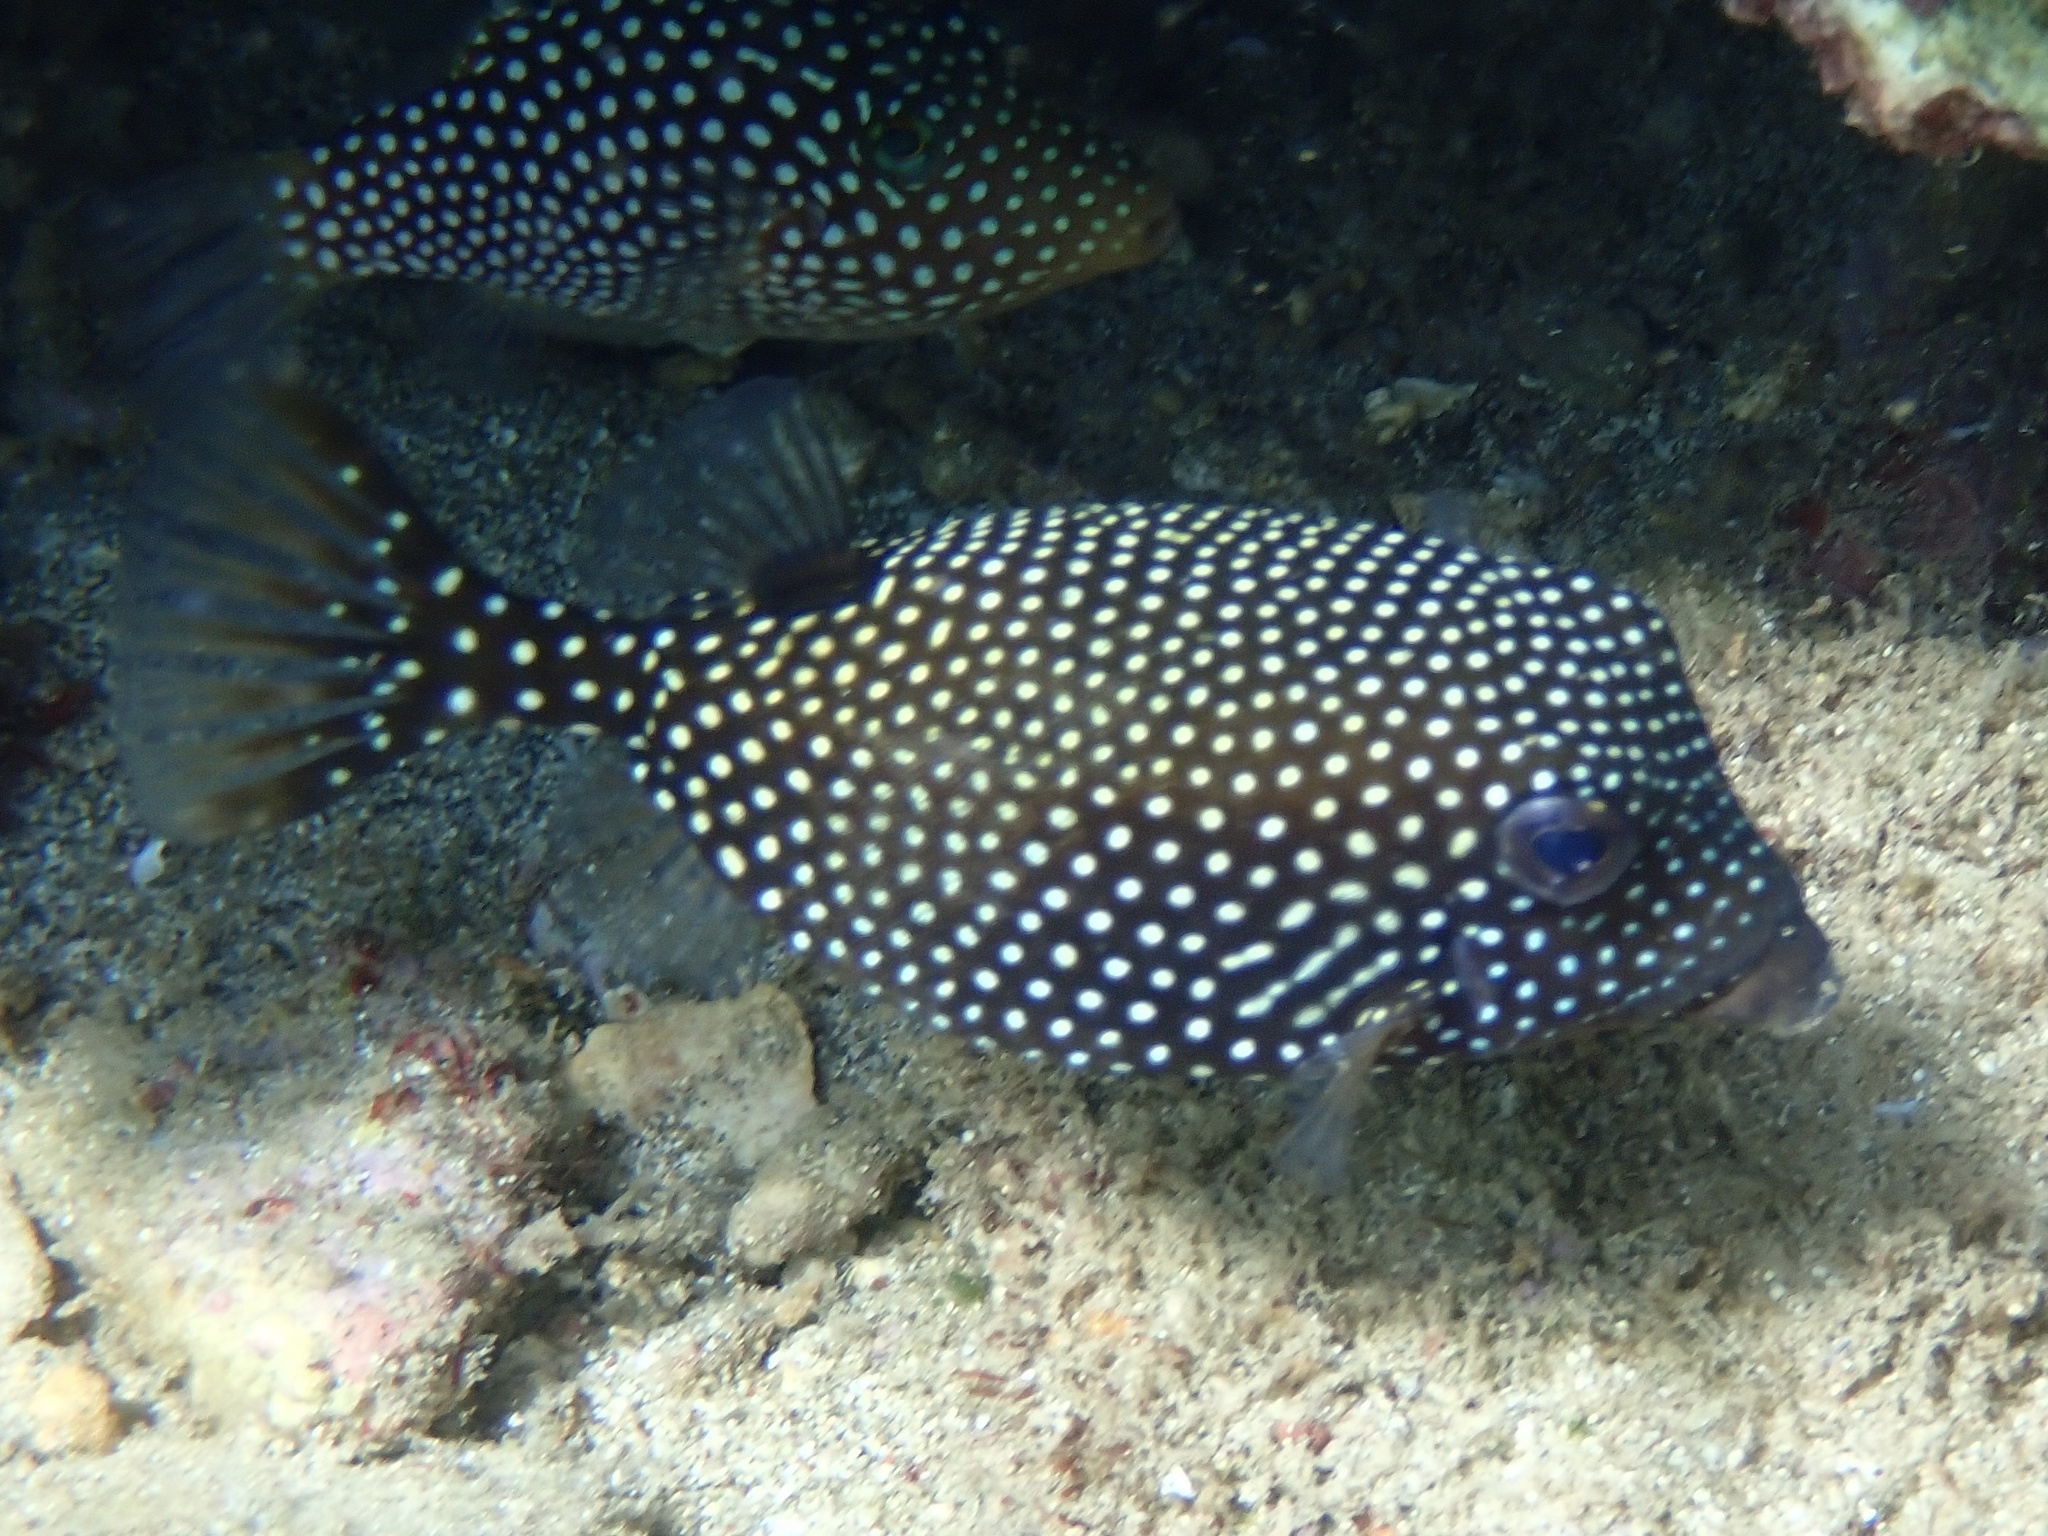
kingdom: Animalia
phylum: Chordata
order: Tetraodontiformes
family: Ostraciidae
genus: Ostracion
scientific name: Ostracion meleagris
